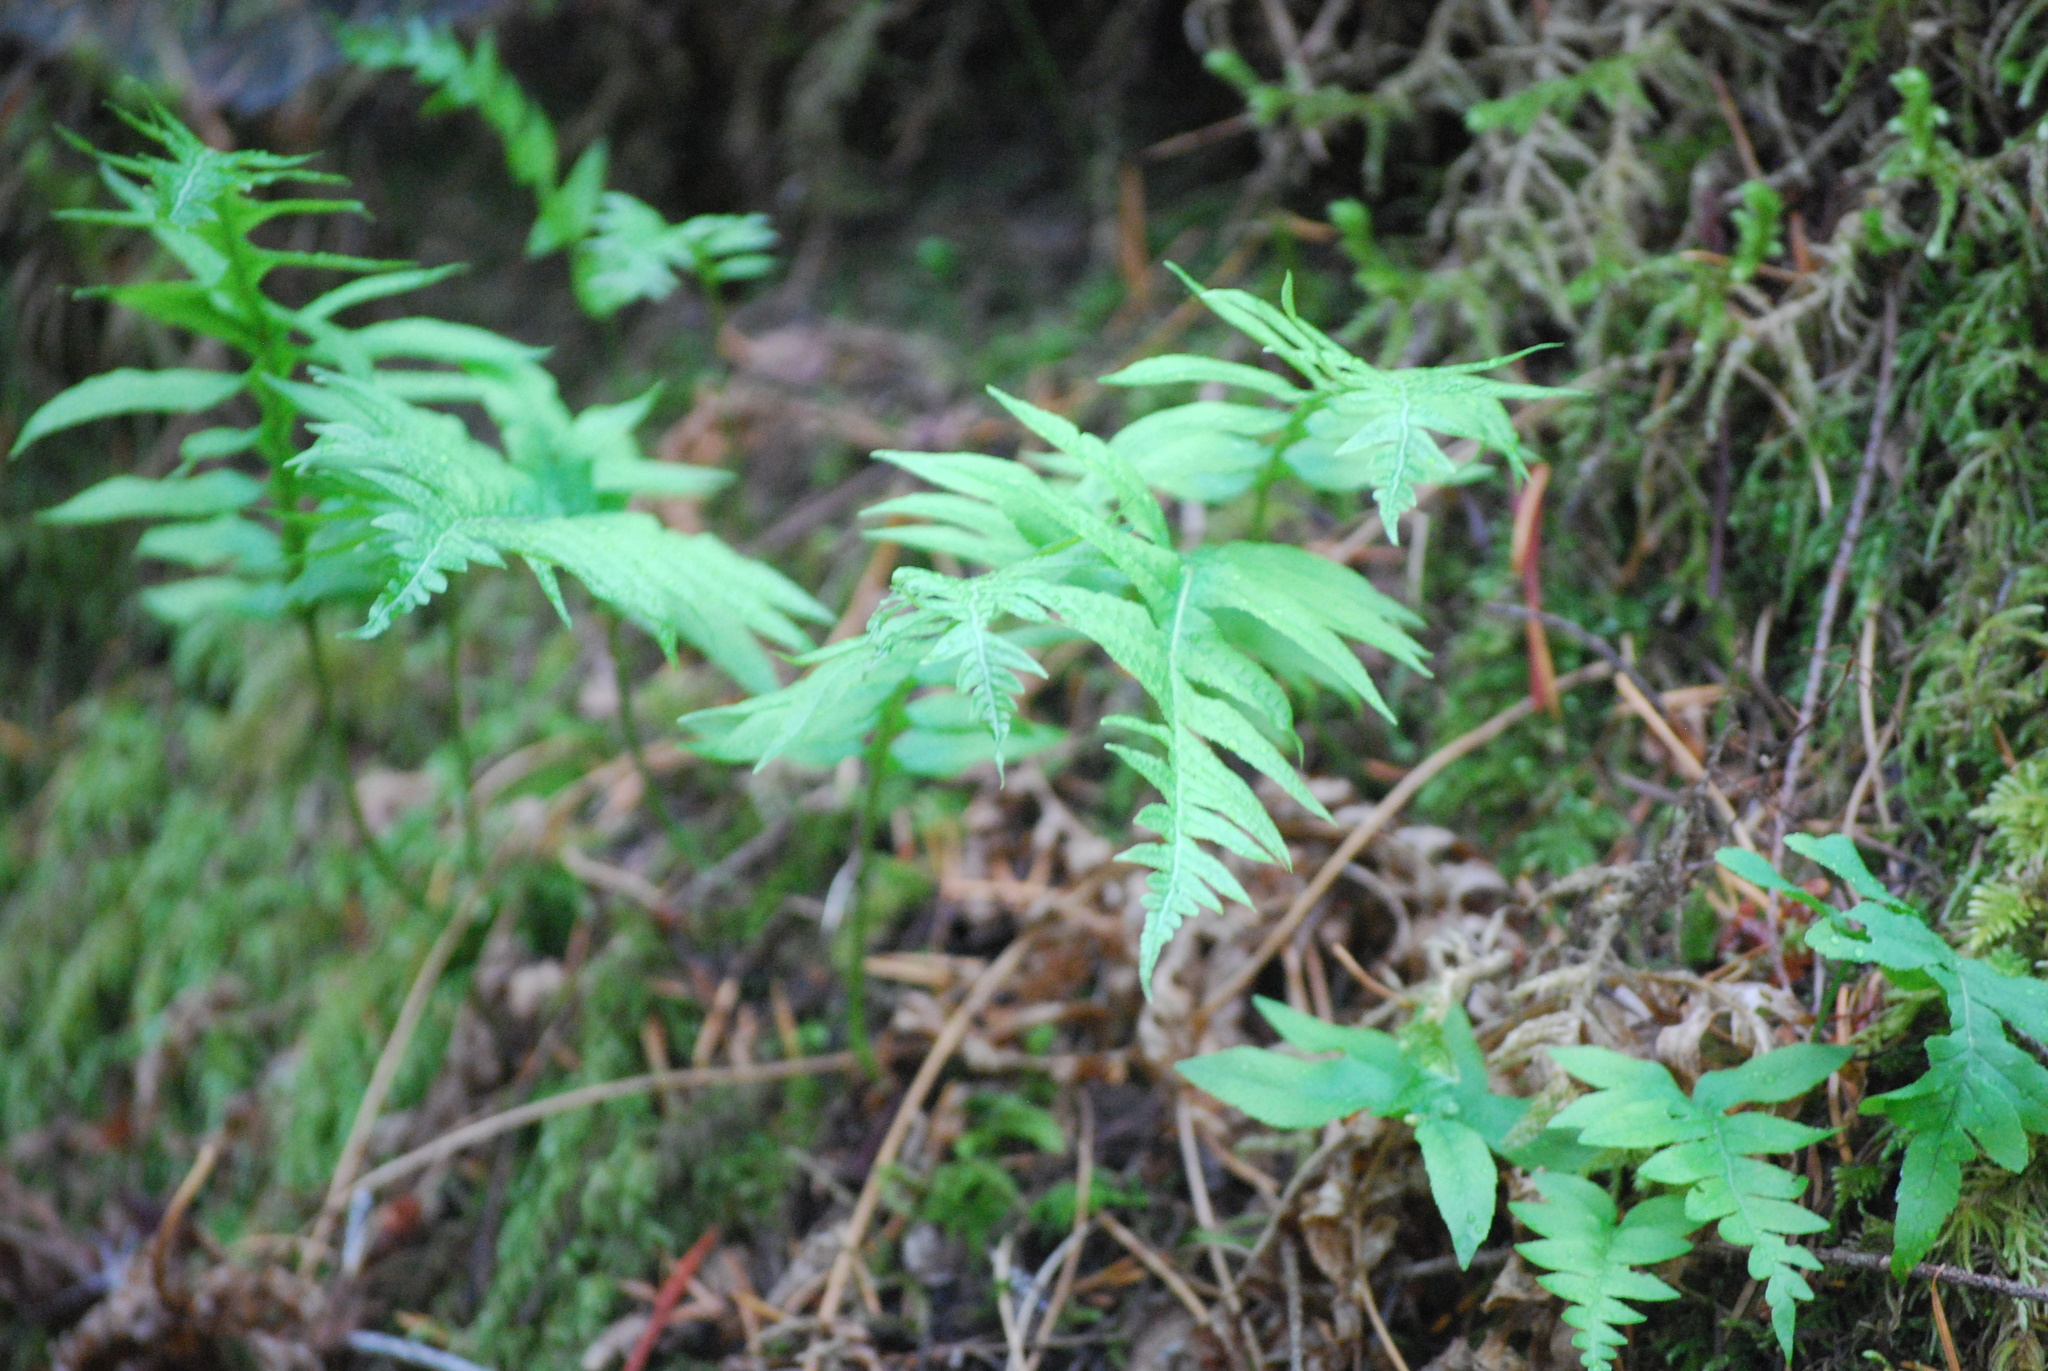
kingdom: Plantae
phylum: Tracheophyta
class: Polypodiopsida
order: Polypodiales
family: Polypodiaceae
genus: Polypodium
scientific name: Polypodium glycyrrhiza
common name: Licorice fern
